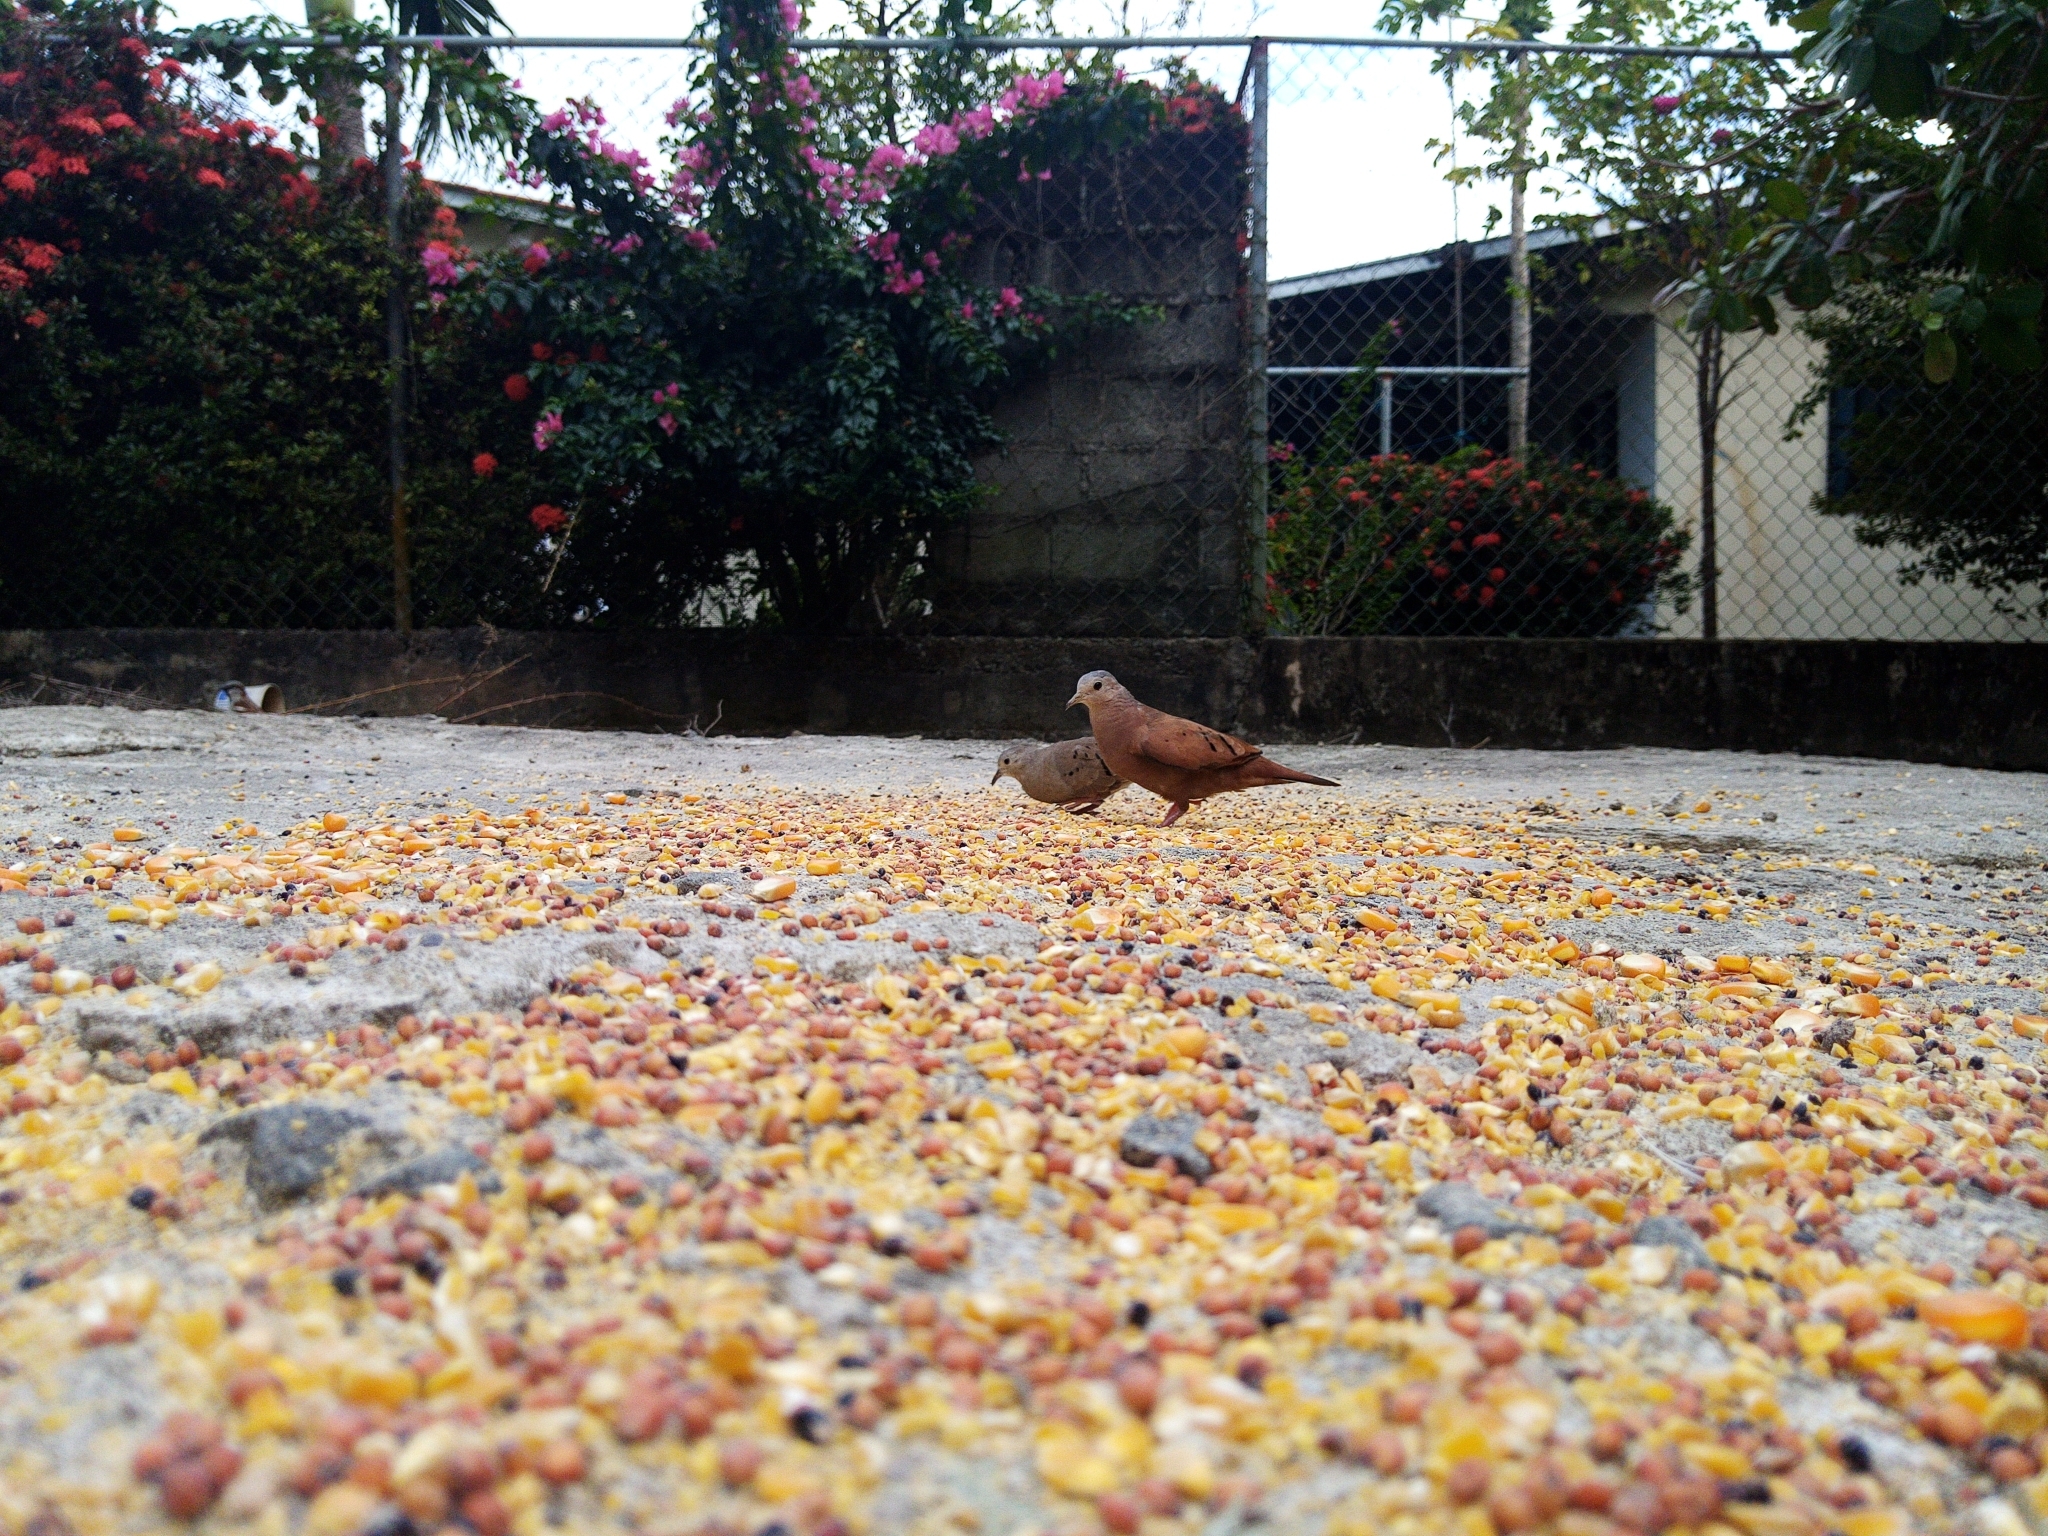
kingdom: Animalia
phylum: Chordata
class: Aves
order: Columbiformes
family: Columbidae
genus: Columbina
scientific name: Columbina talpacoti
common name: Ruddy ground dove
